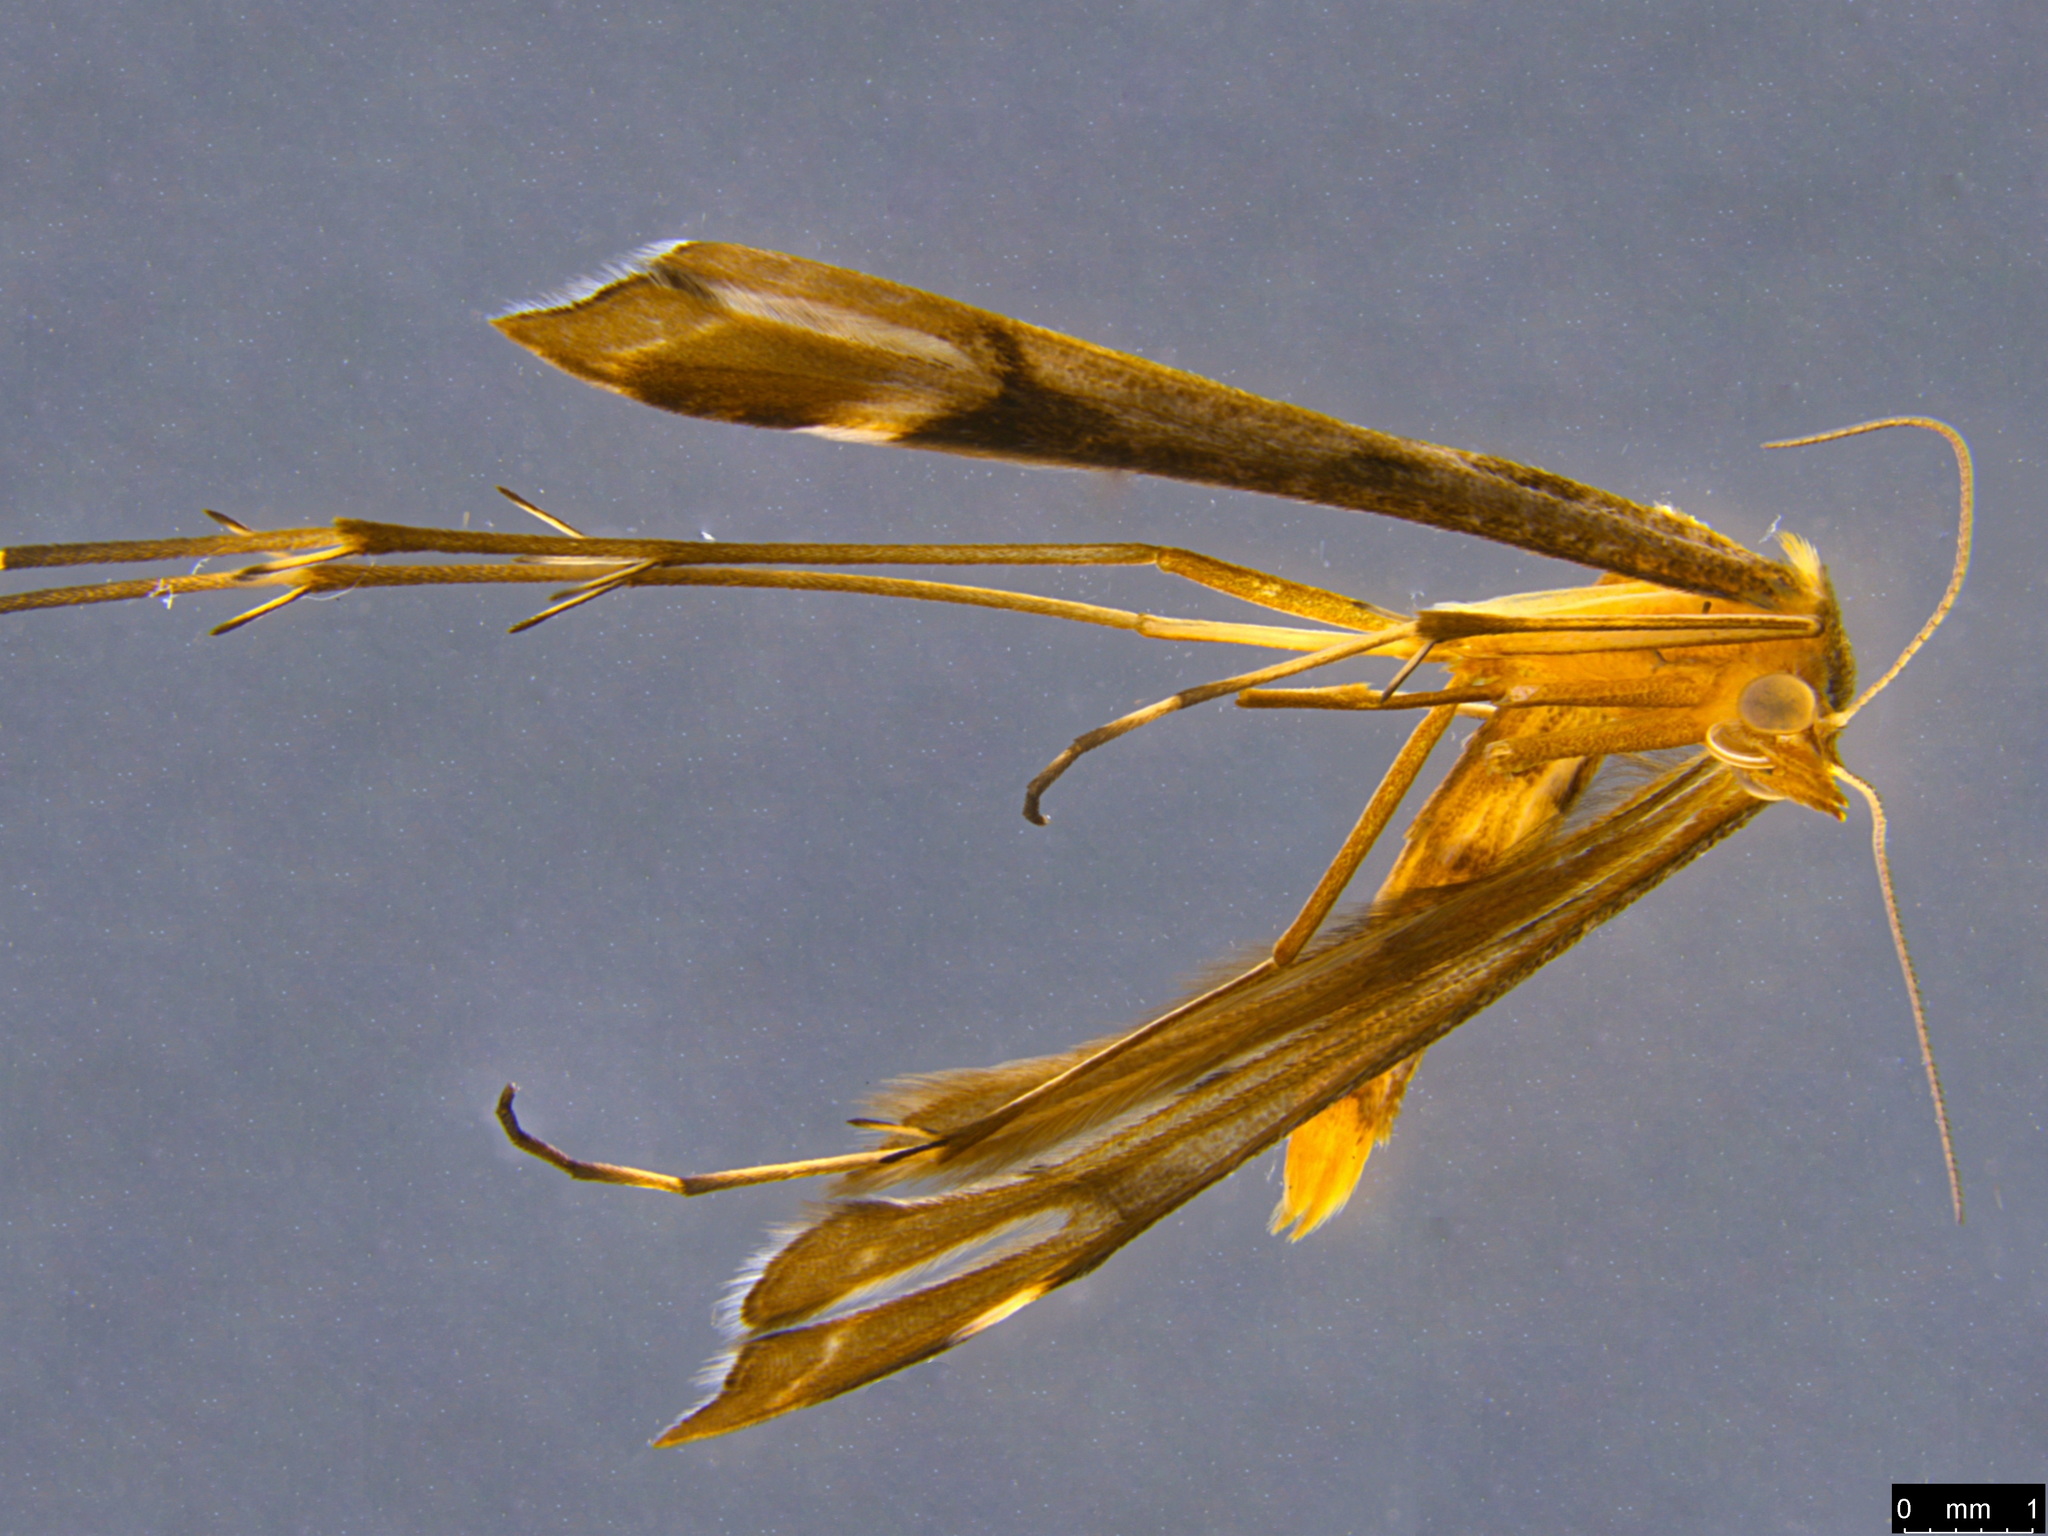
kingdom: Animalia
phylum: Arthropoda
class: Insecta
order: Lepidoptera
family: Pterophoridae
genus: Sinpunctiptilia
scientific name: Sinpunctiptilia emissalis
